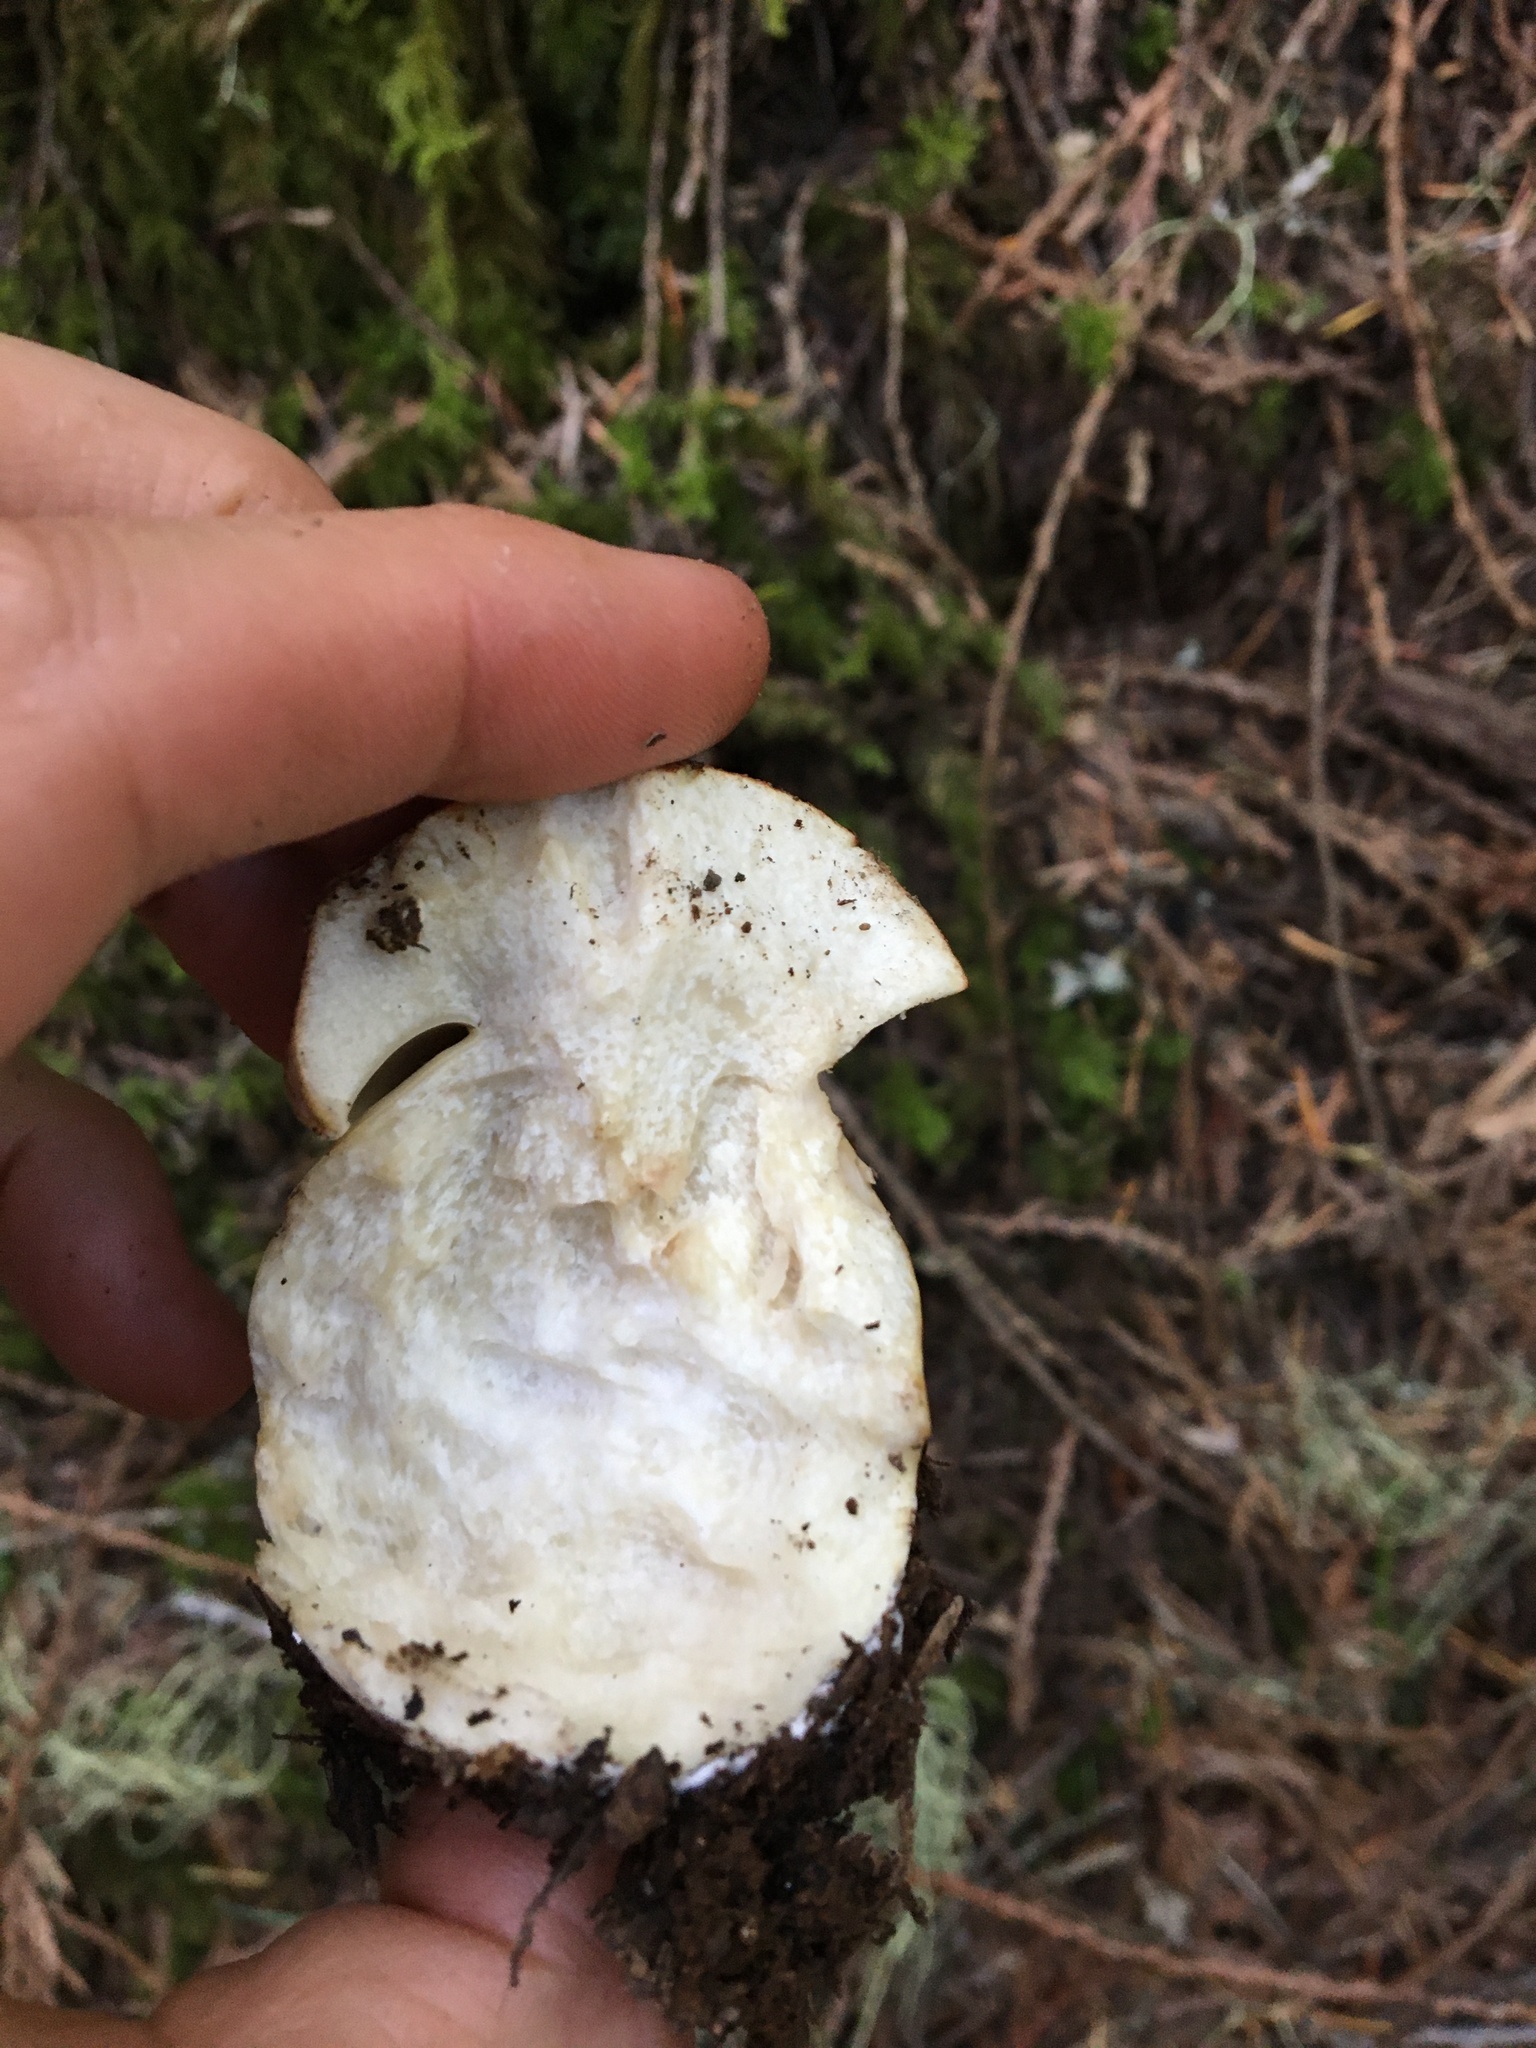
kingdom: Fungi
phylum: Basidiomycota
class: Agaricomycetes
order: Boletales
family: Boletaceae
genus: Boletus
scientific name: Boletus rex-veris
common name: Spring king
